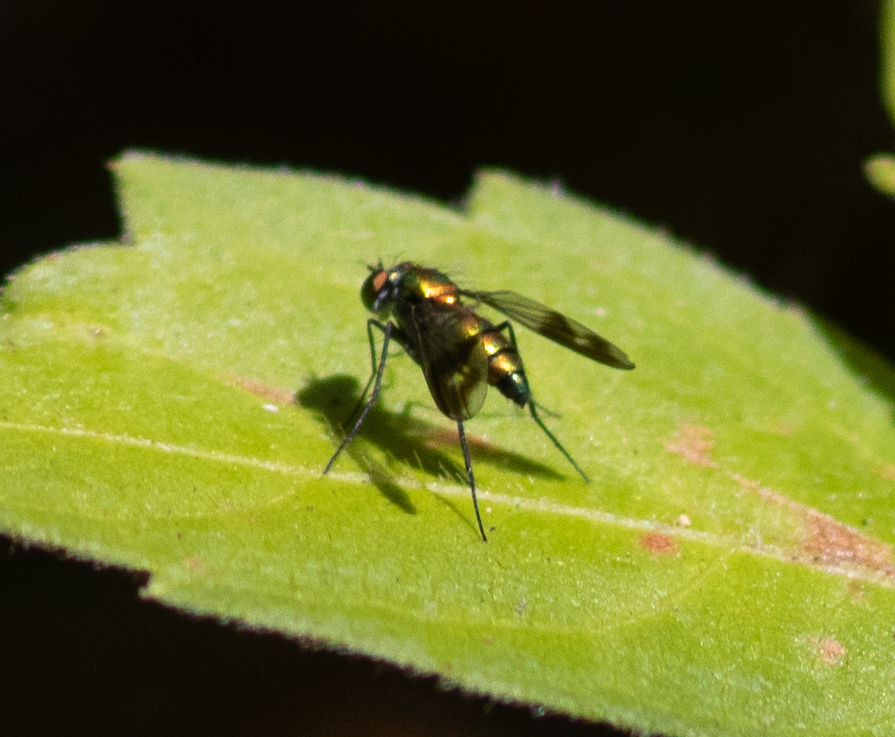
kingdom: Animalia
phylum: Arthropoda
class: Insecta
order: Diptera
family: Dolichopodidae
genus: Condylostylus
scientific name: Condylostylus patibulatus
